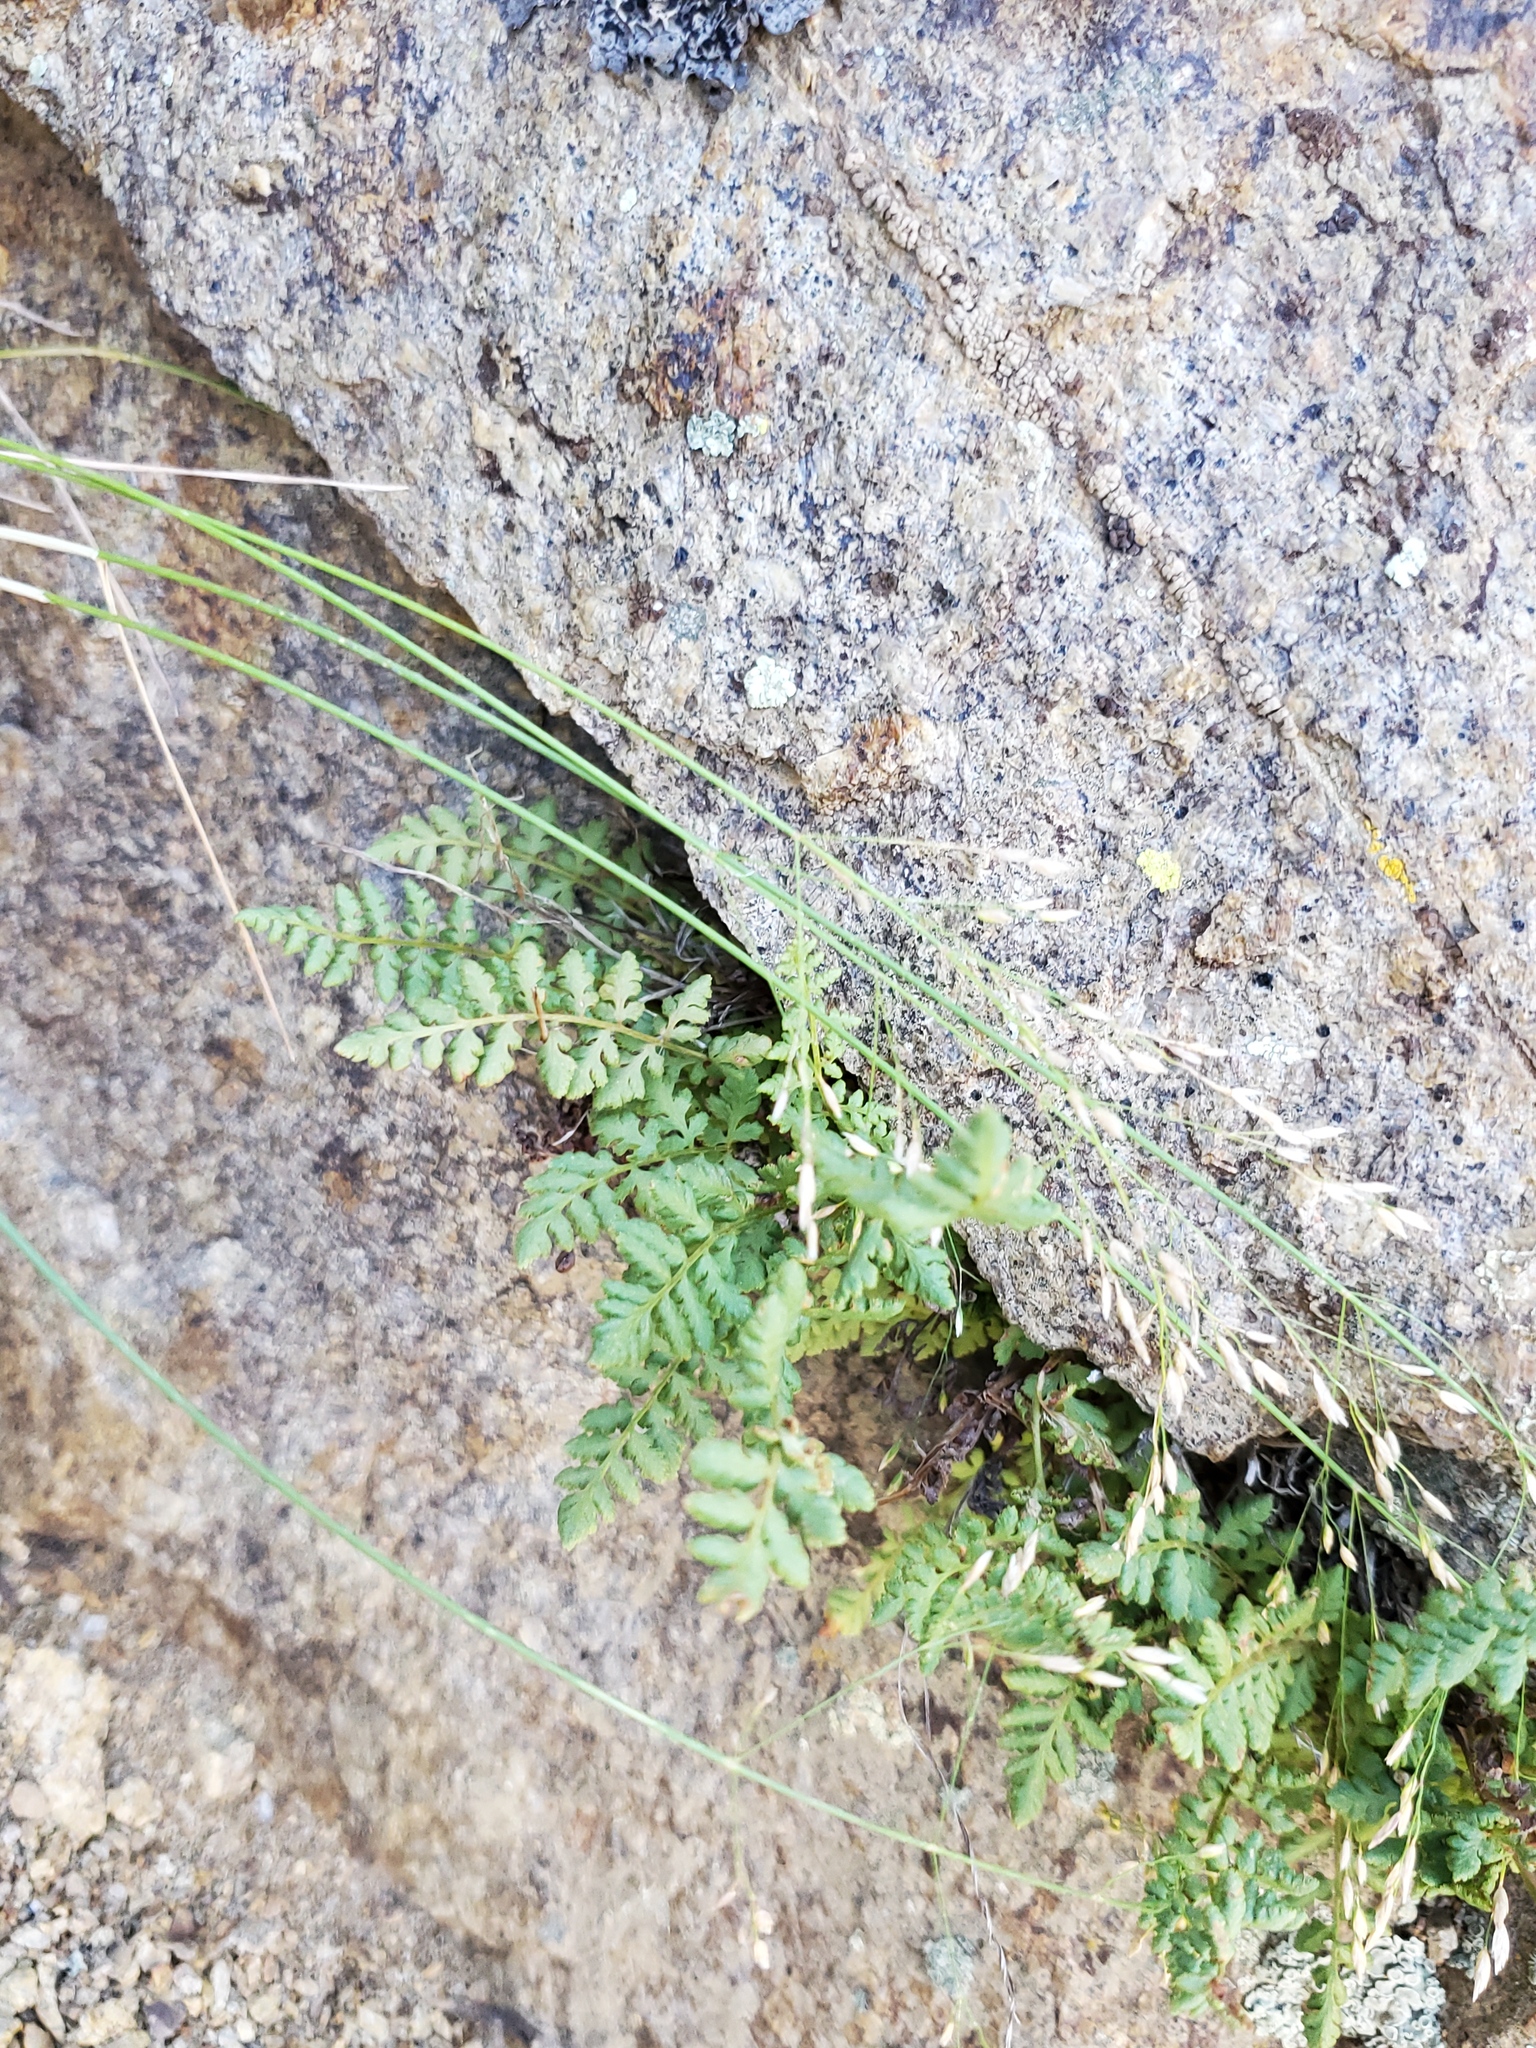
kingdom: Plantae
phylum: Tracheophyta
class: Polypodiopsida
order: Polypodiales
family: Woodsiaceae
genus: Physematium
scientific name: Physematium oreganum
